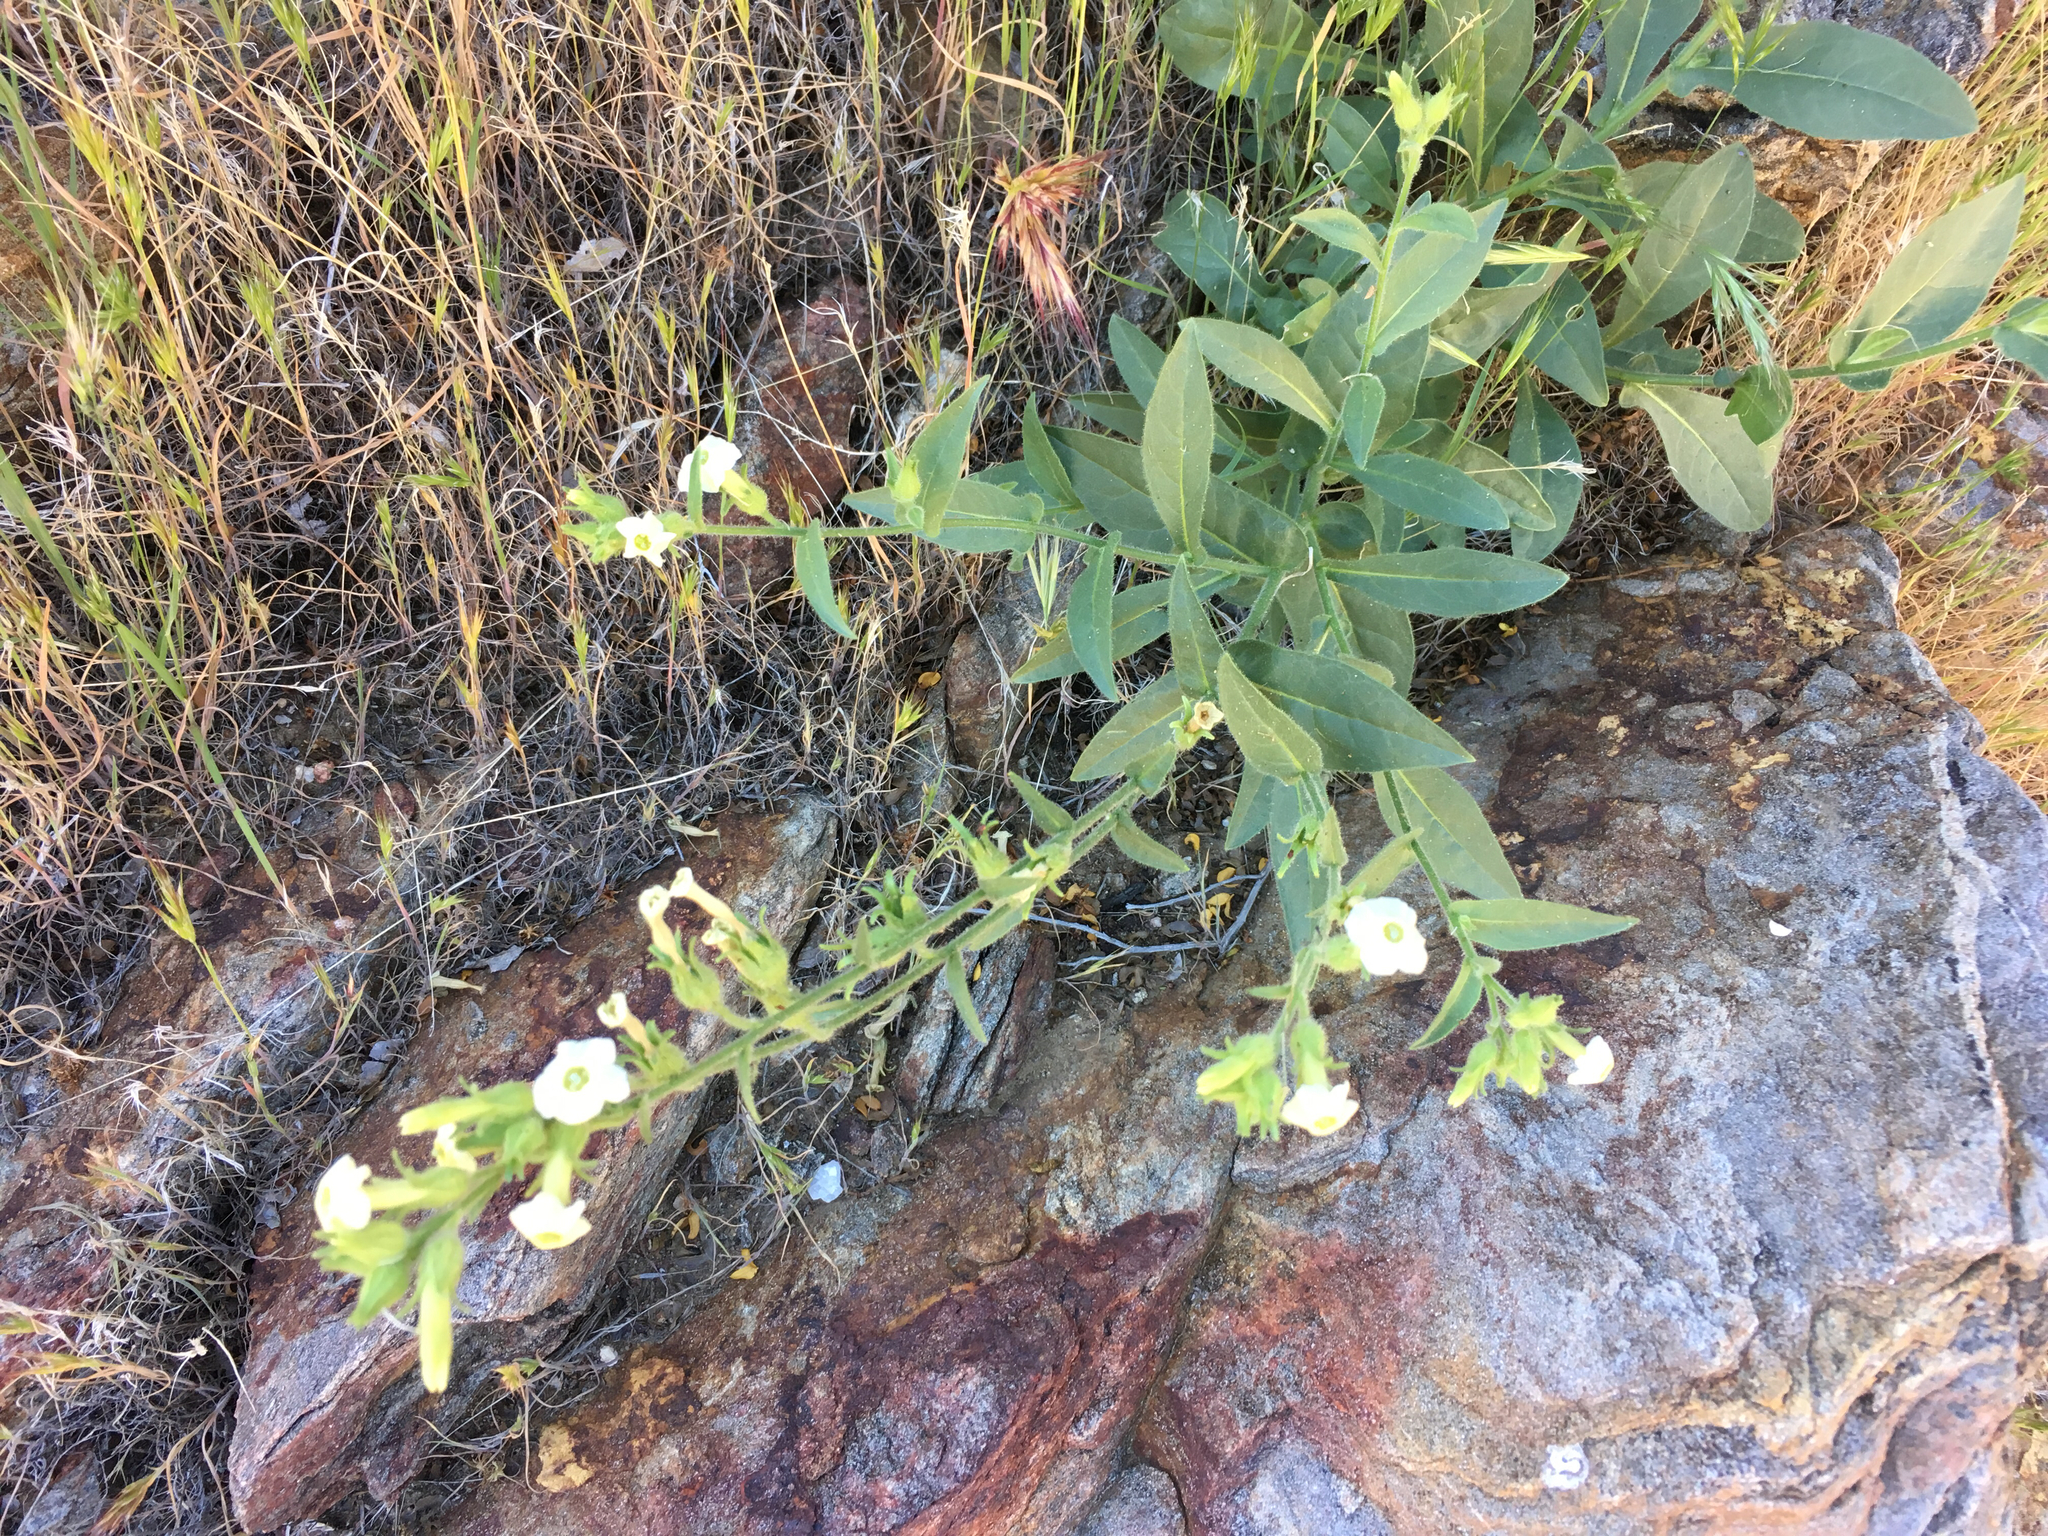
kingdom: Plantae
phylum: Tracheophyta
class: Magnoliopsida
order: Solanales
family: Solanaceae
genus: Nicotiana
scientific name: Nicotiana obtusifolia
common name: Desert tobacco
